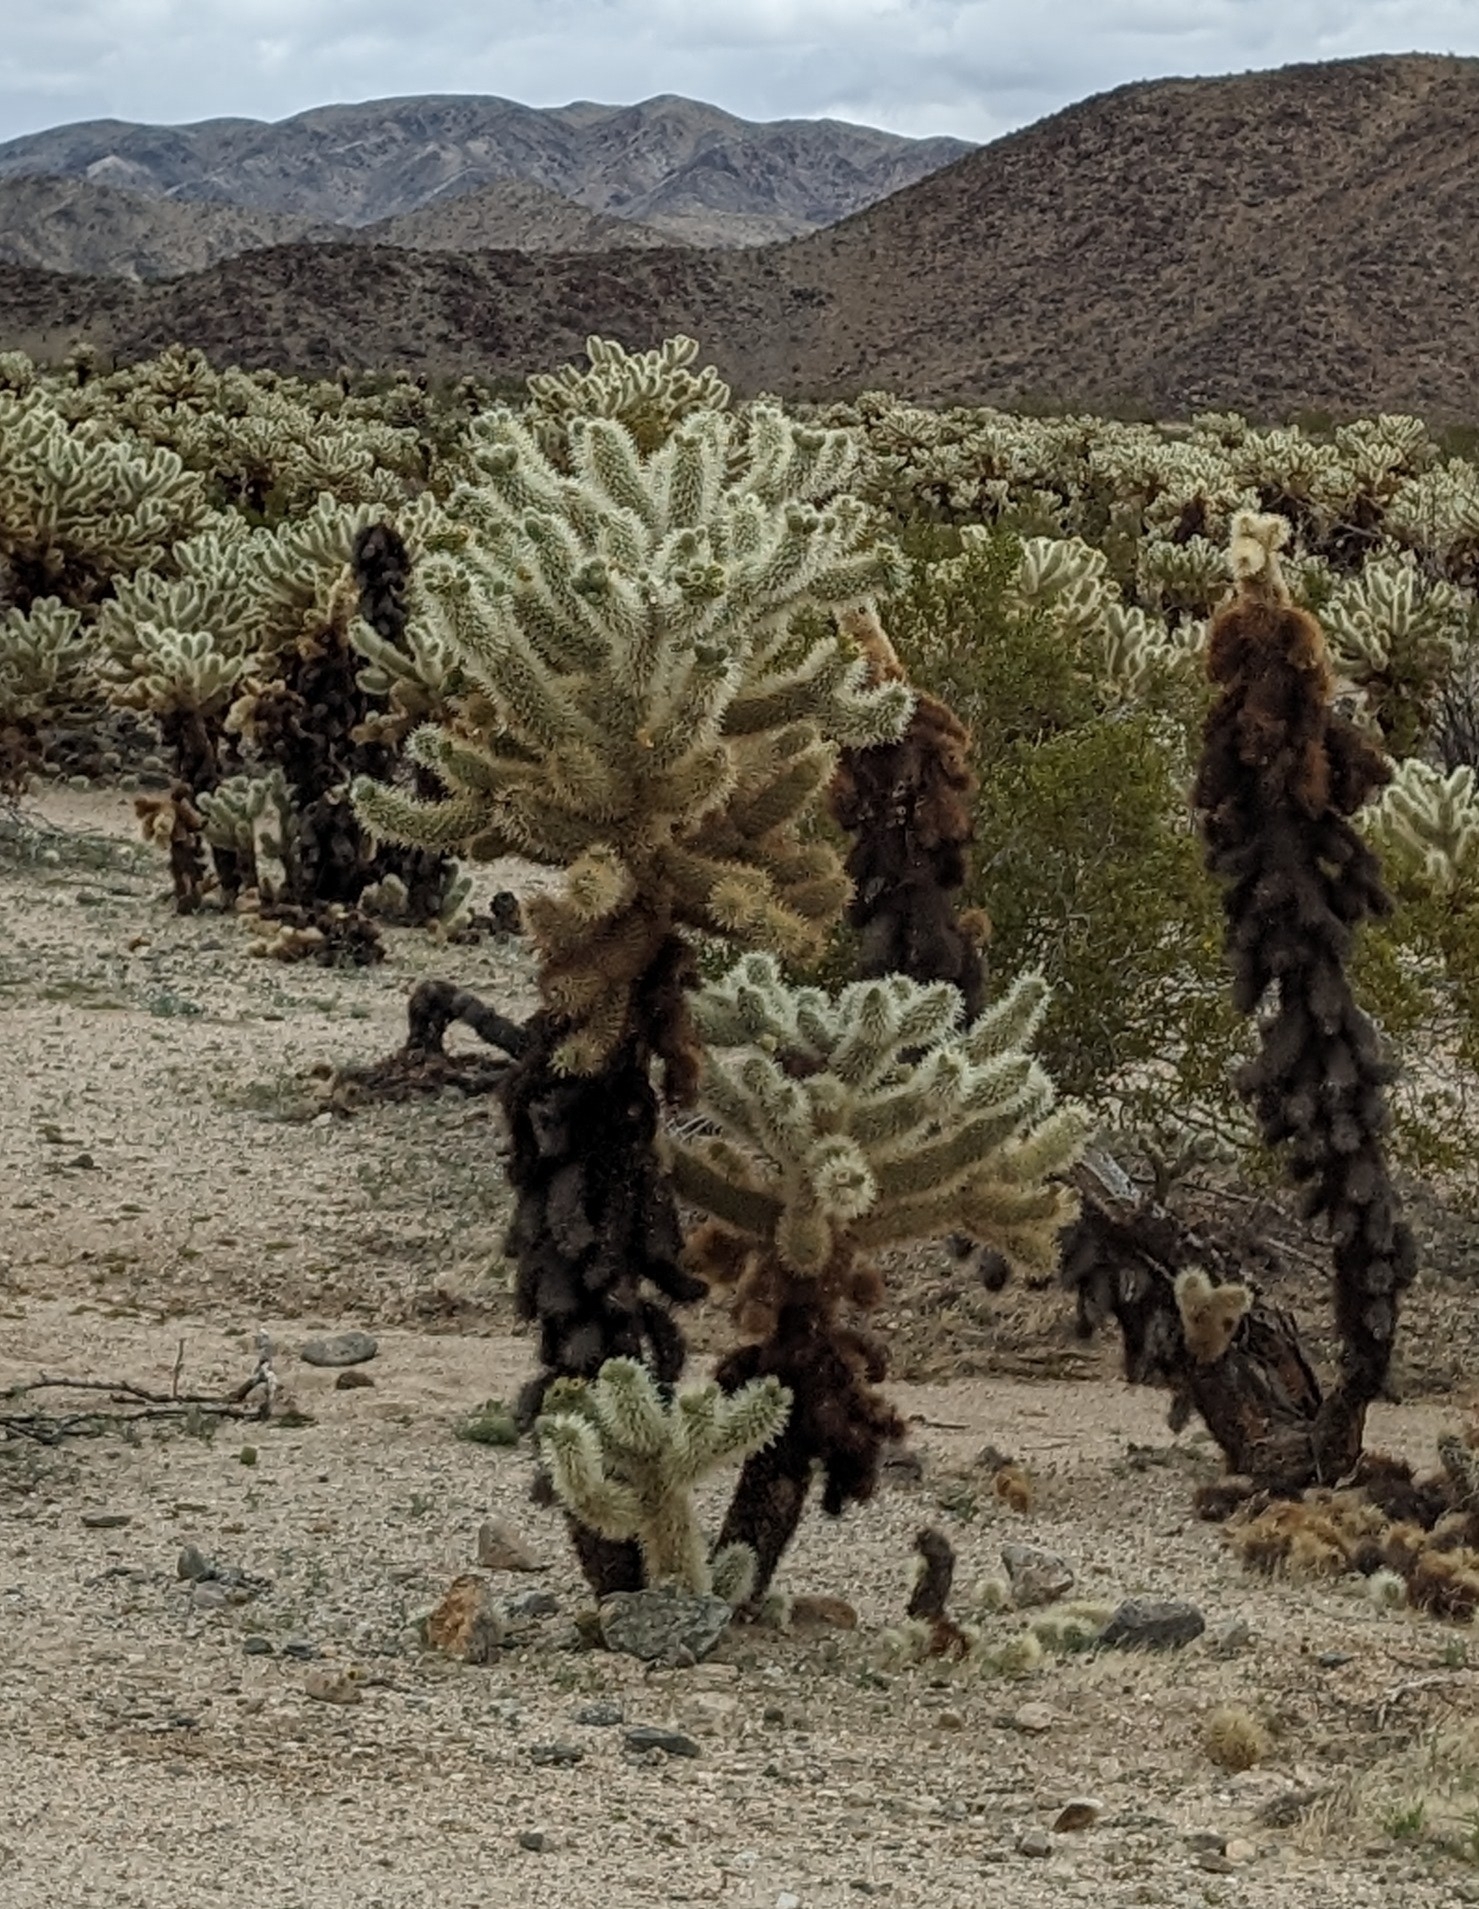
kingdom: Plantae
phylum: Tracheophyta
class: Magnoliopsida
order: Caryophyllales
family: Cactaceae
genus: Cylindropuntia
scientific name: Cylindropuntia fosbergii
